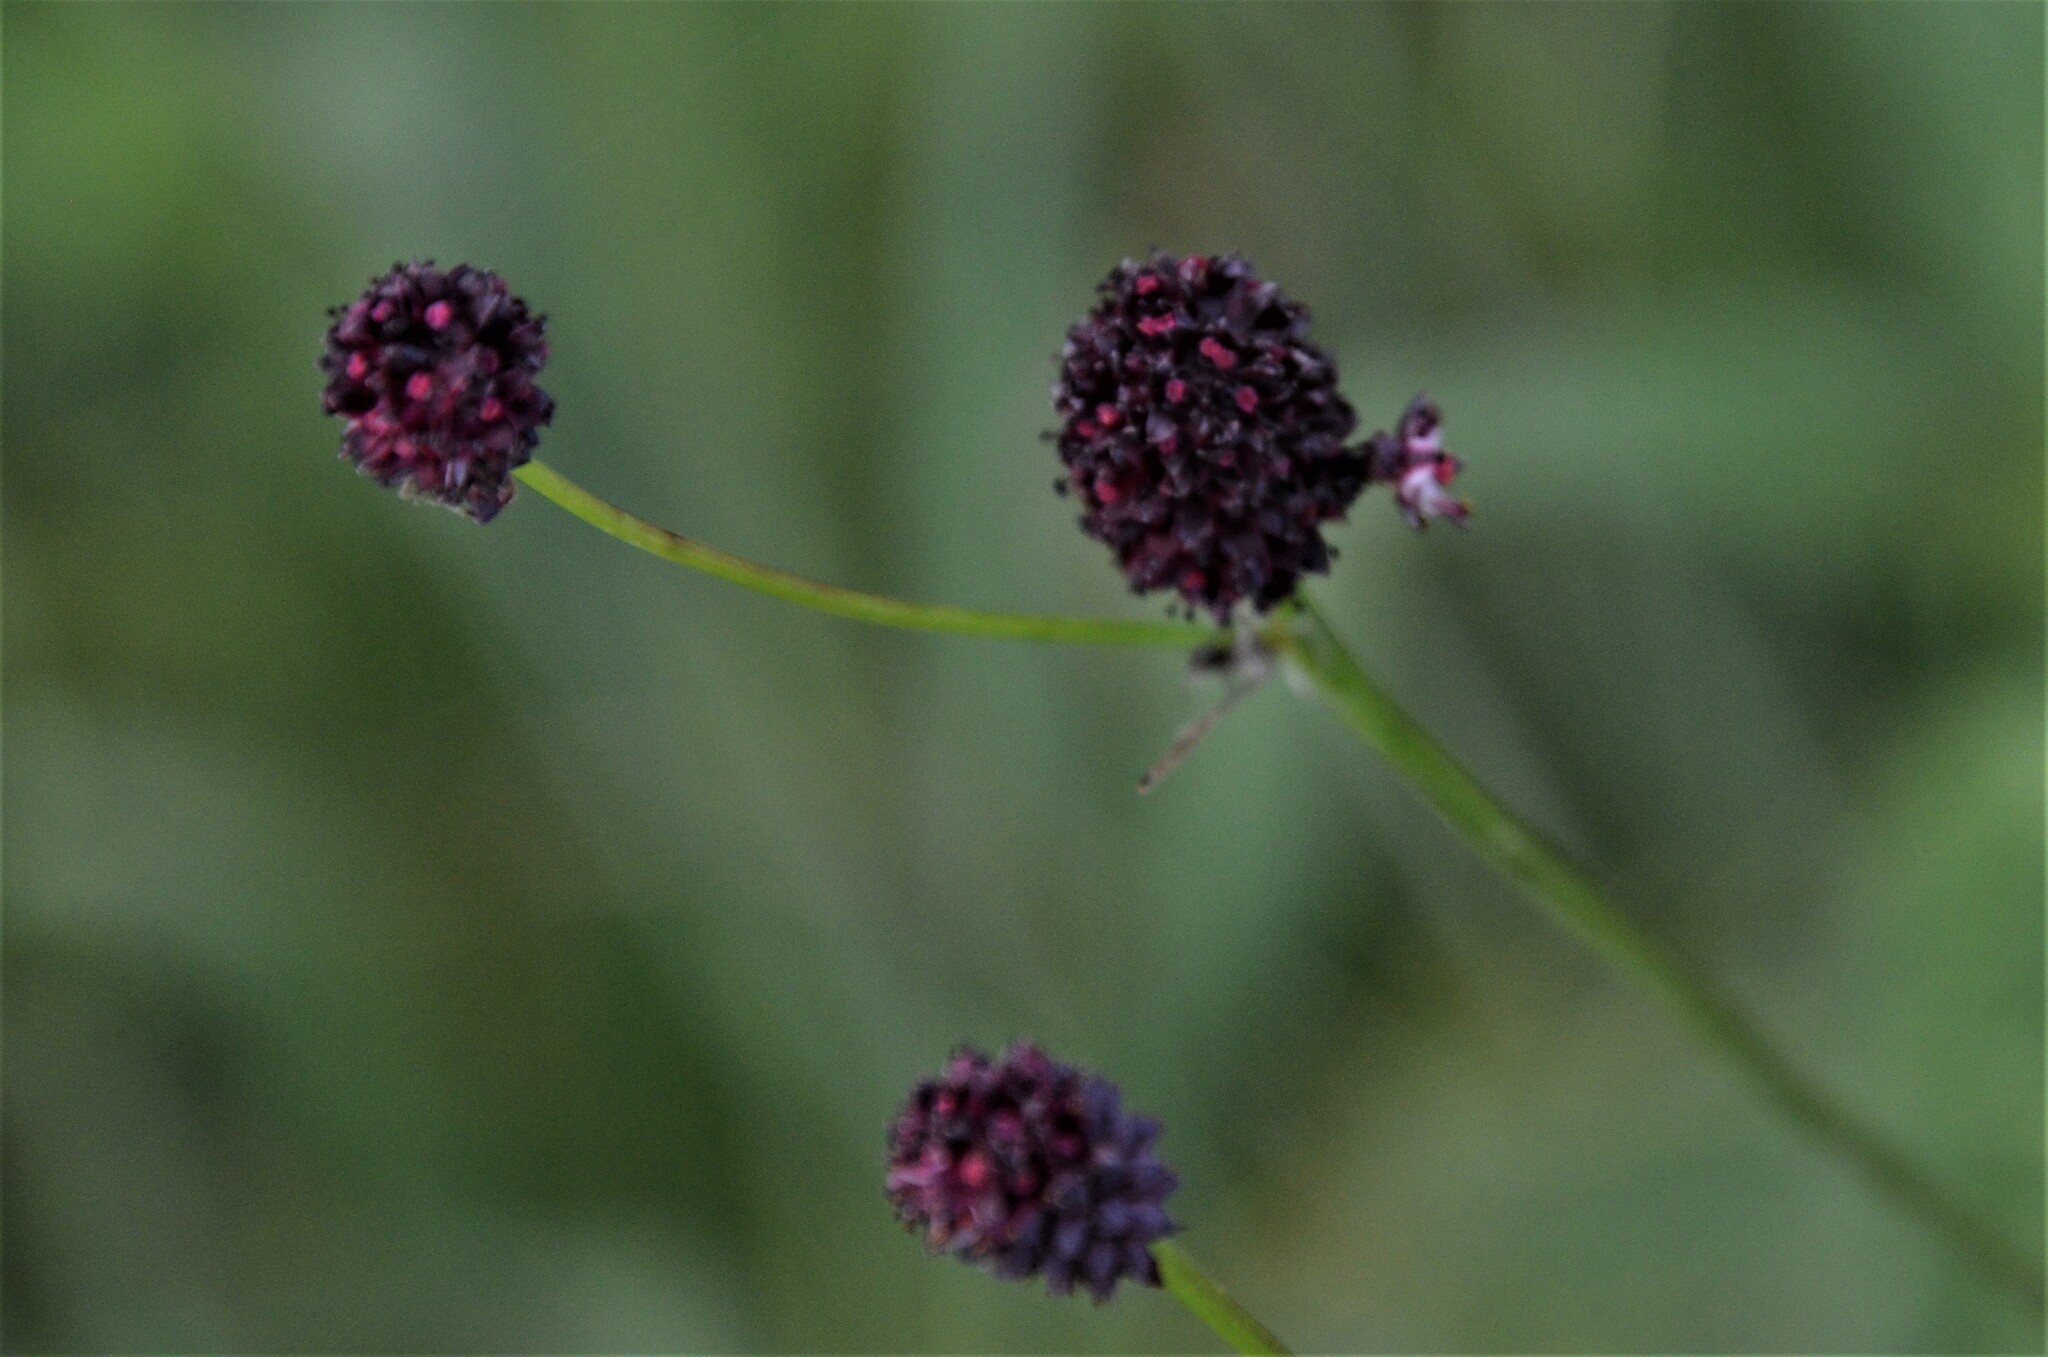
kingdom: Plantae
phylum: Tracheophyta
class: Magnoliopsida
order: Rosales
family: Rosaceae
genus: Sanguisorba
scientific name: Sanguisorba officinalis
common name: Great burnet
